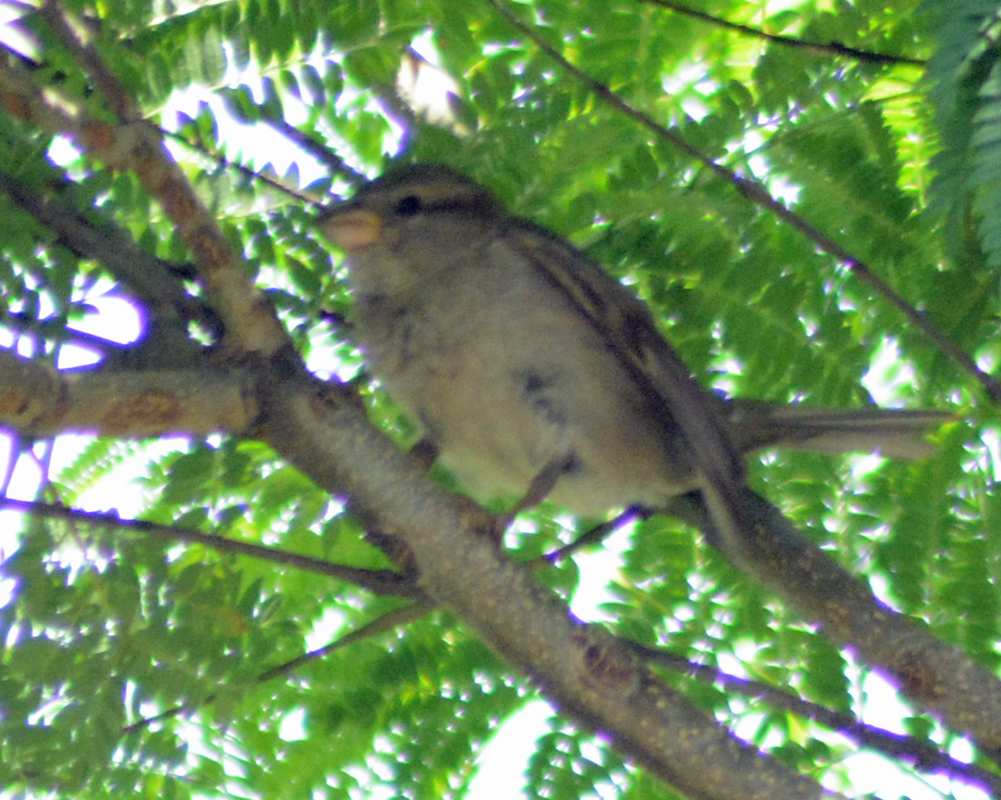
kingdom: Animalia
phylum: Chordata
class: Aves
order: Passeriformes
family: Passeridae
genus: Passer
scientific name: Passer domesticus
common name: House sparrow
